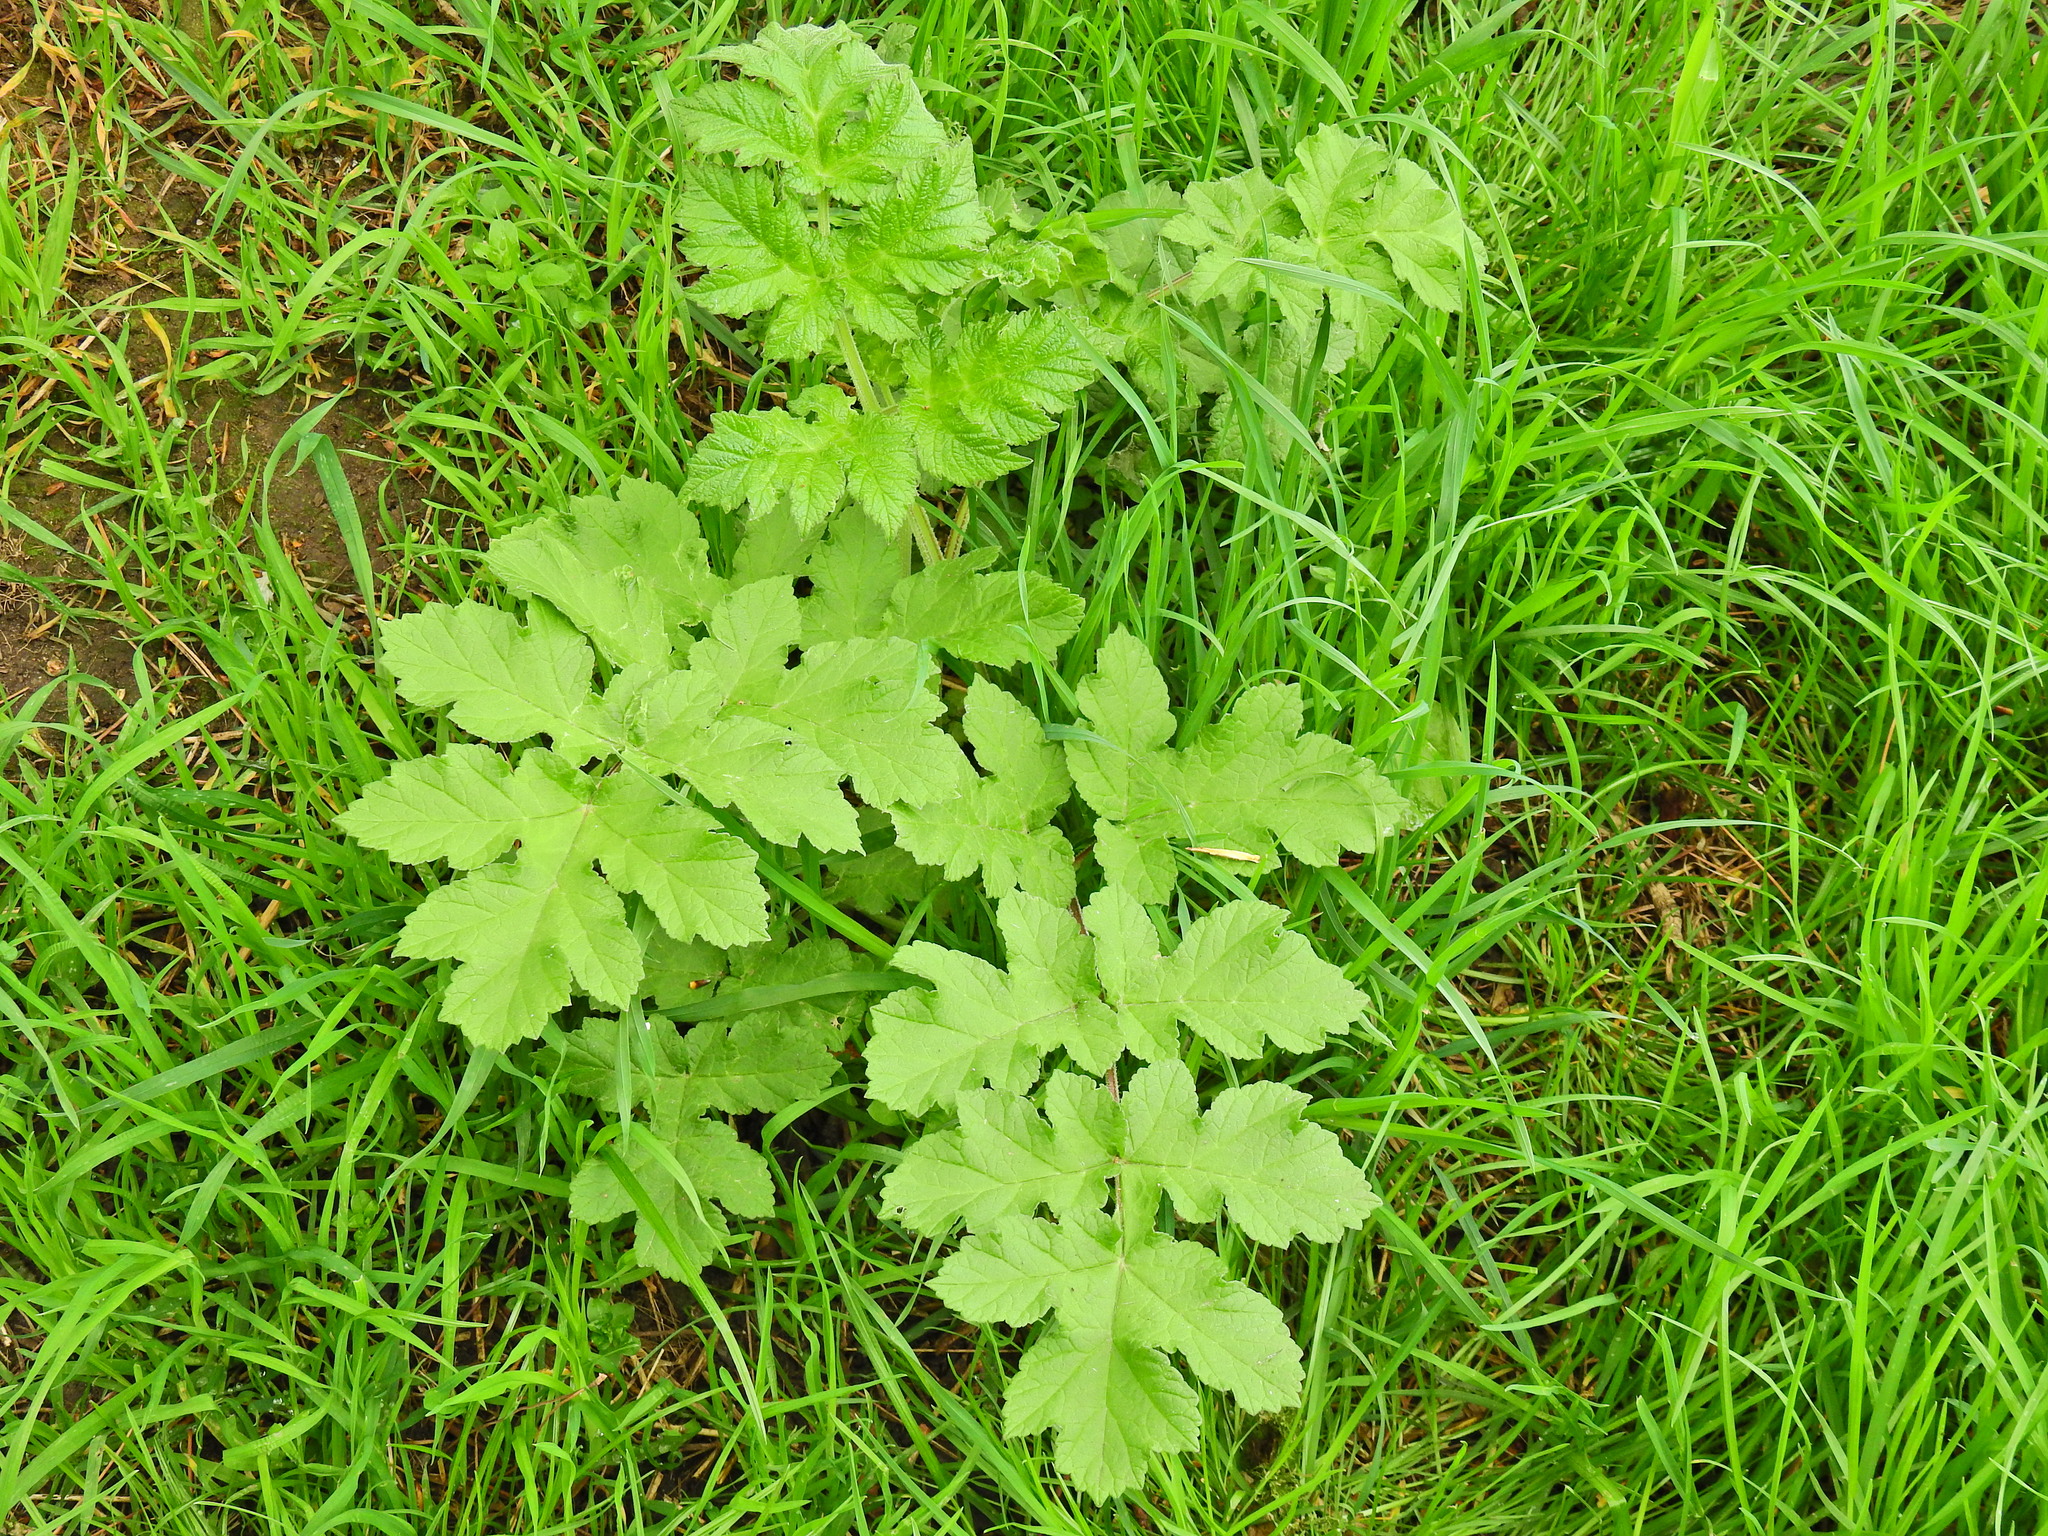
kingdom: Plantae
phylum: Tracheophyta
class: Magnoliopsida
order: Apiales
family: Apiaceae
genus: Heracleum
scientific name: Heracleum sphondylium
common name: Hogweed
